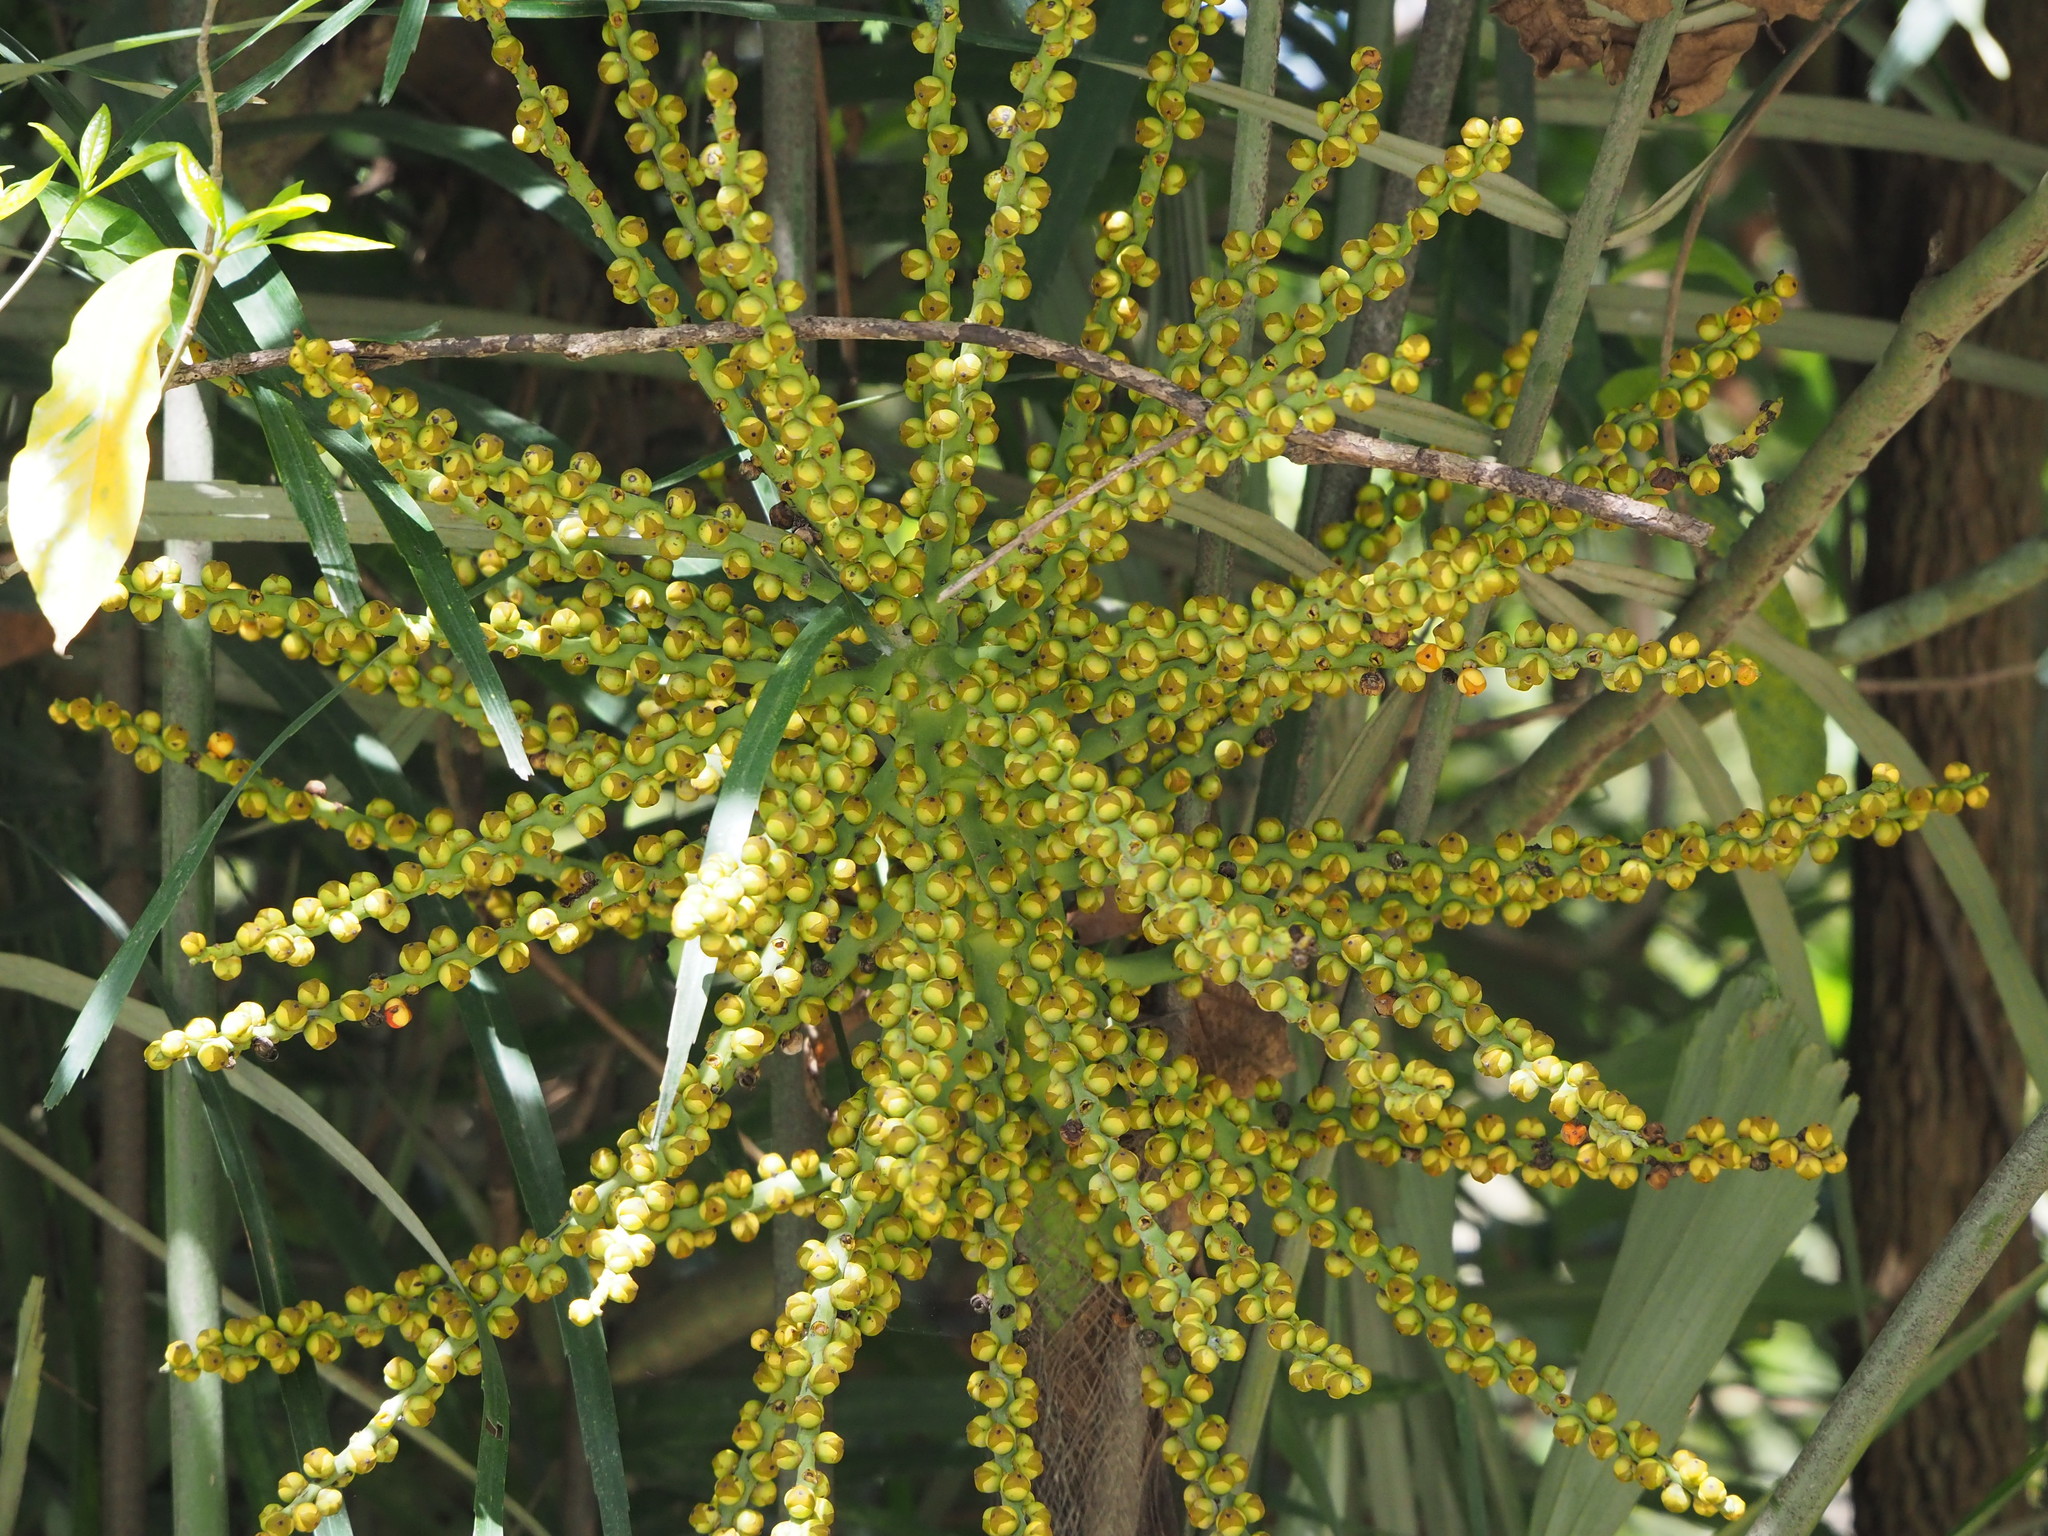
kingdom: Plantae
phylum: Tracheophyta
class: Liliopsida
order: Arecales
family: Arecaceae
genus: Arenga
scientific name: Arenga engleri
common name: Formosan sugar palm
